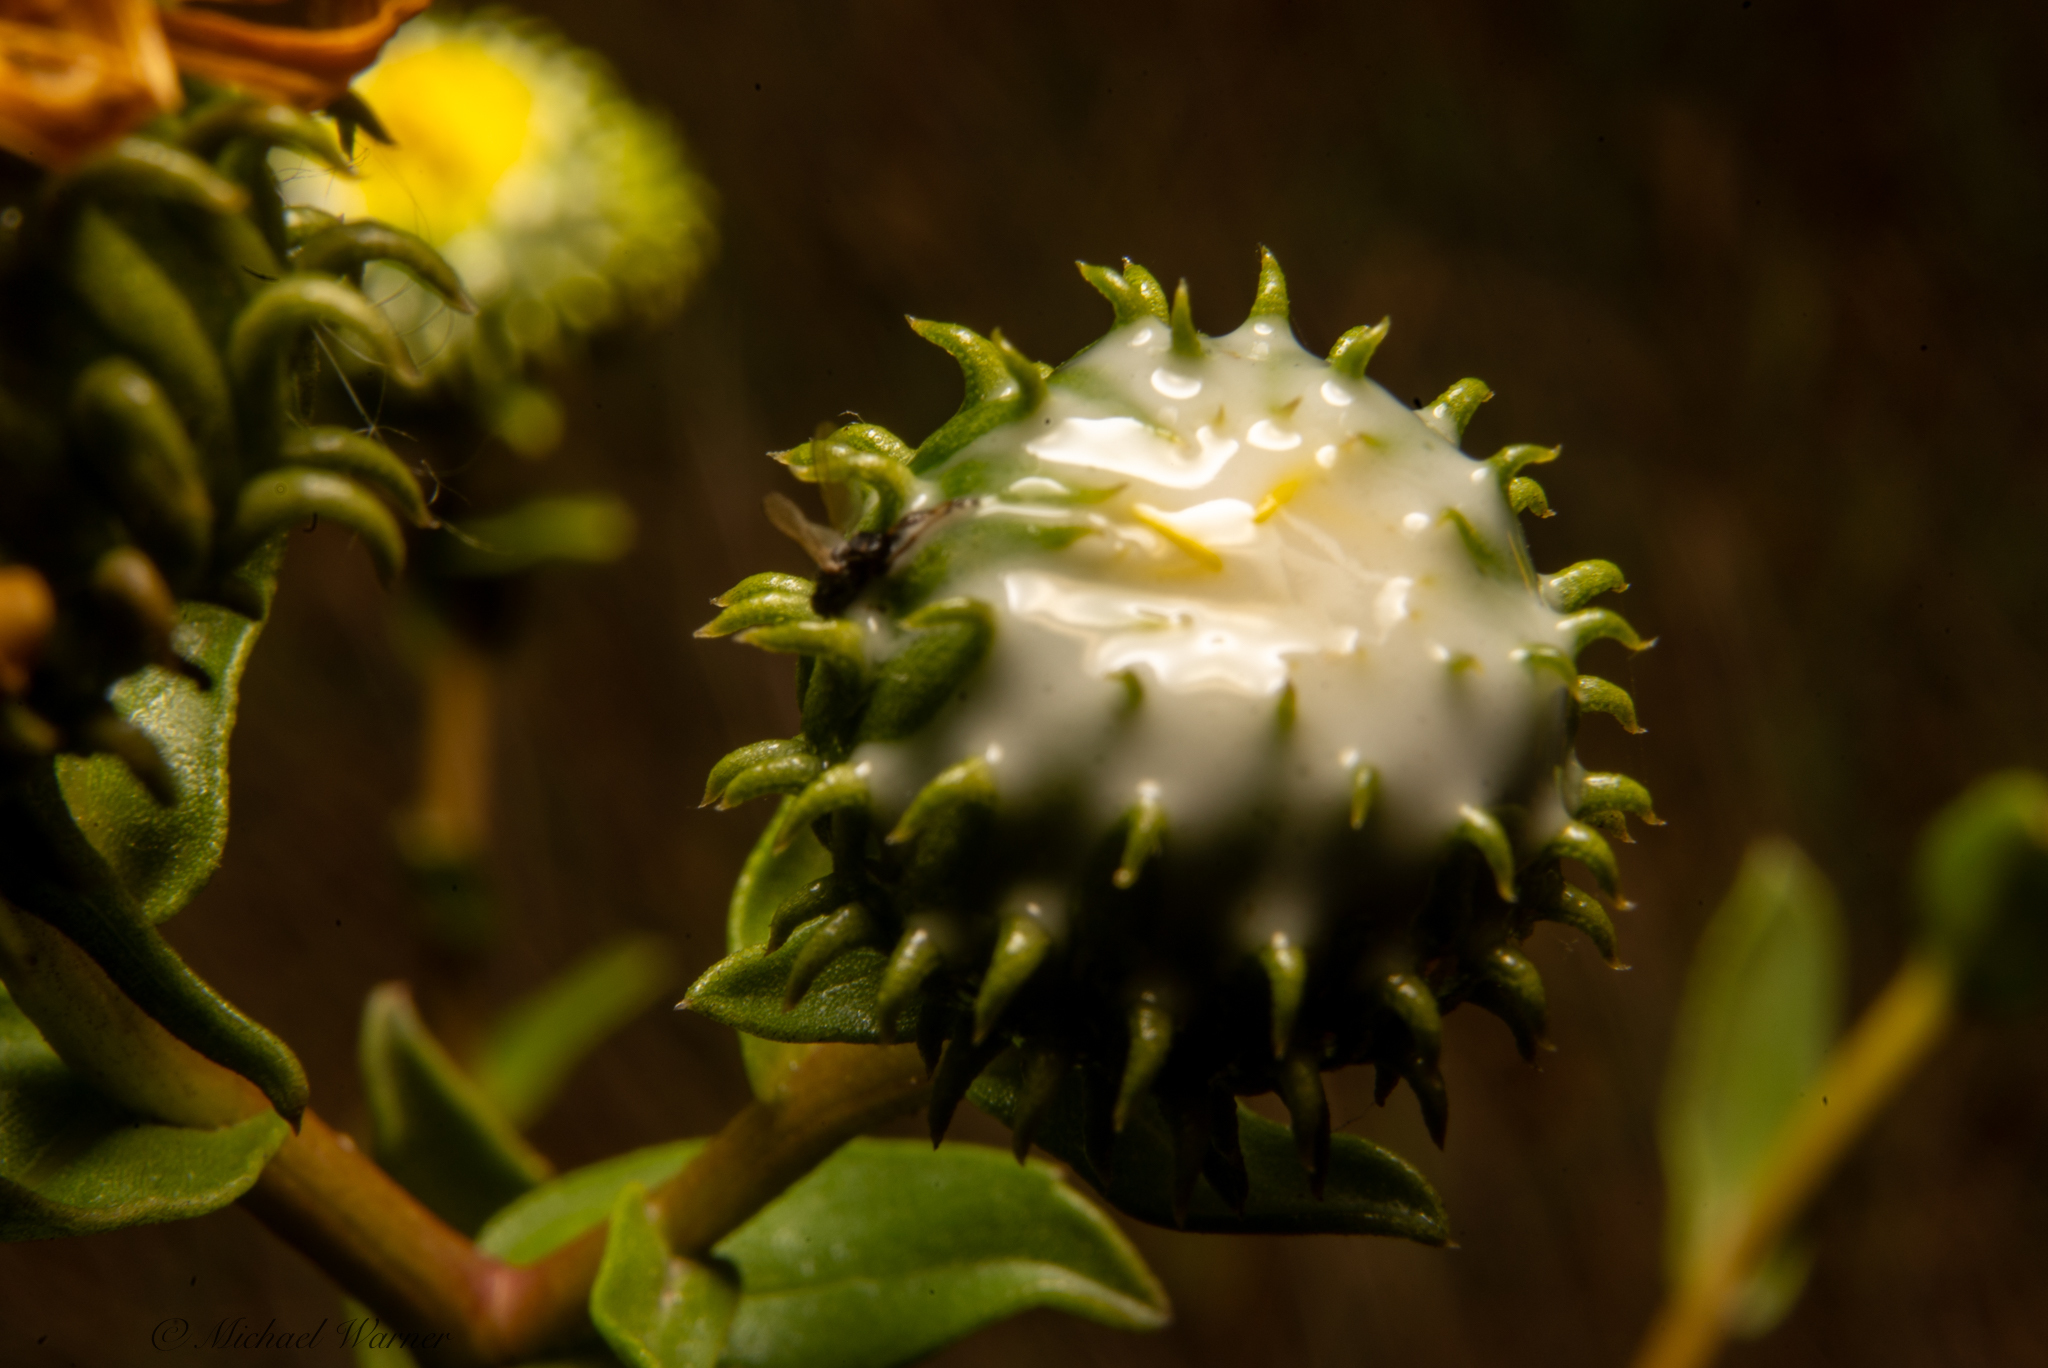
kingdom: Plantae
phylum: Tracheophyta
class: Magnoliopsida
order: Asterales
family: Asteraceae
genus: Grindelia
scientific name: Grindelia hirsutula
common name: Hairy gumweed
